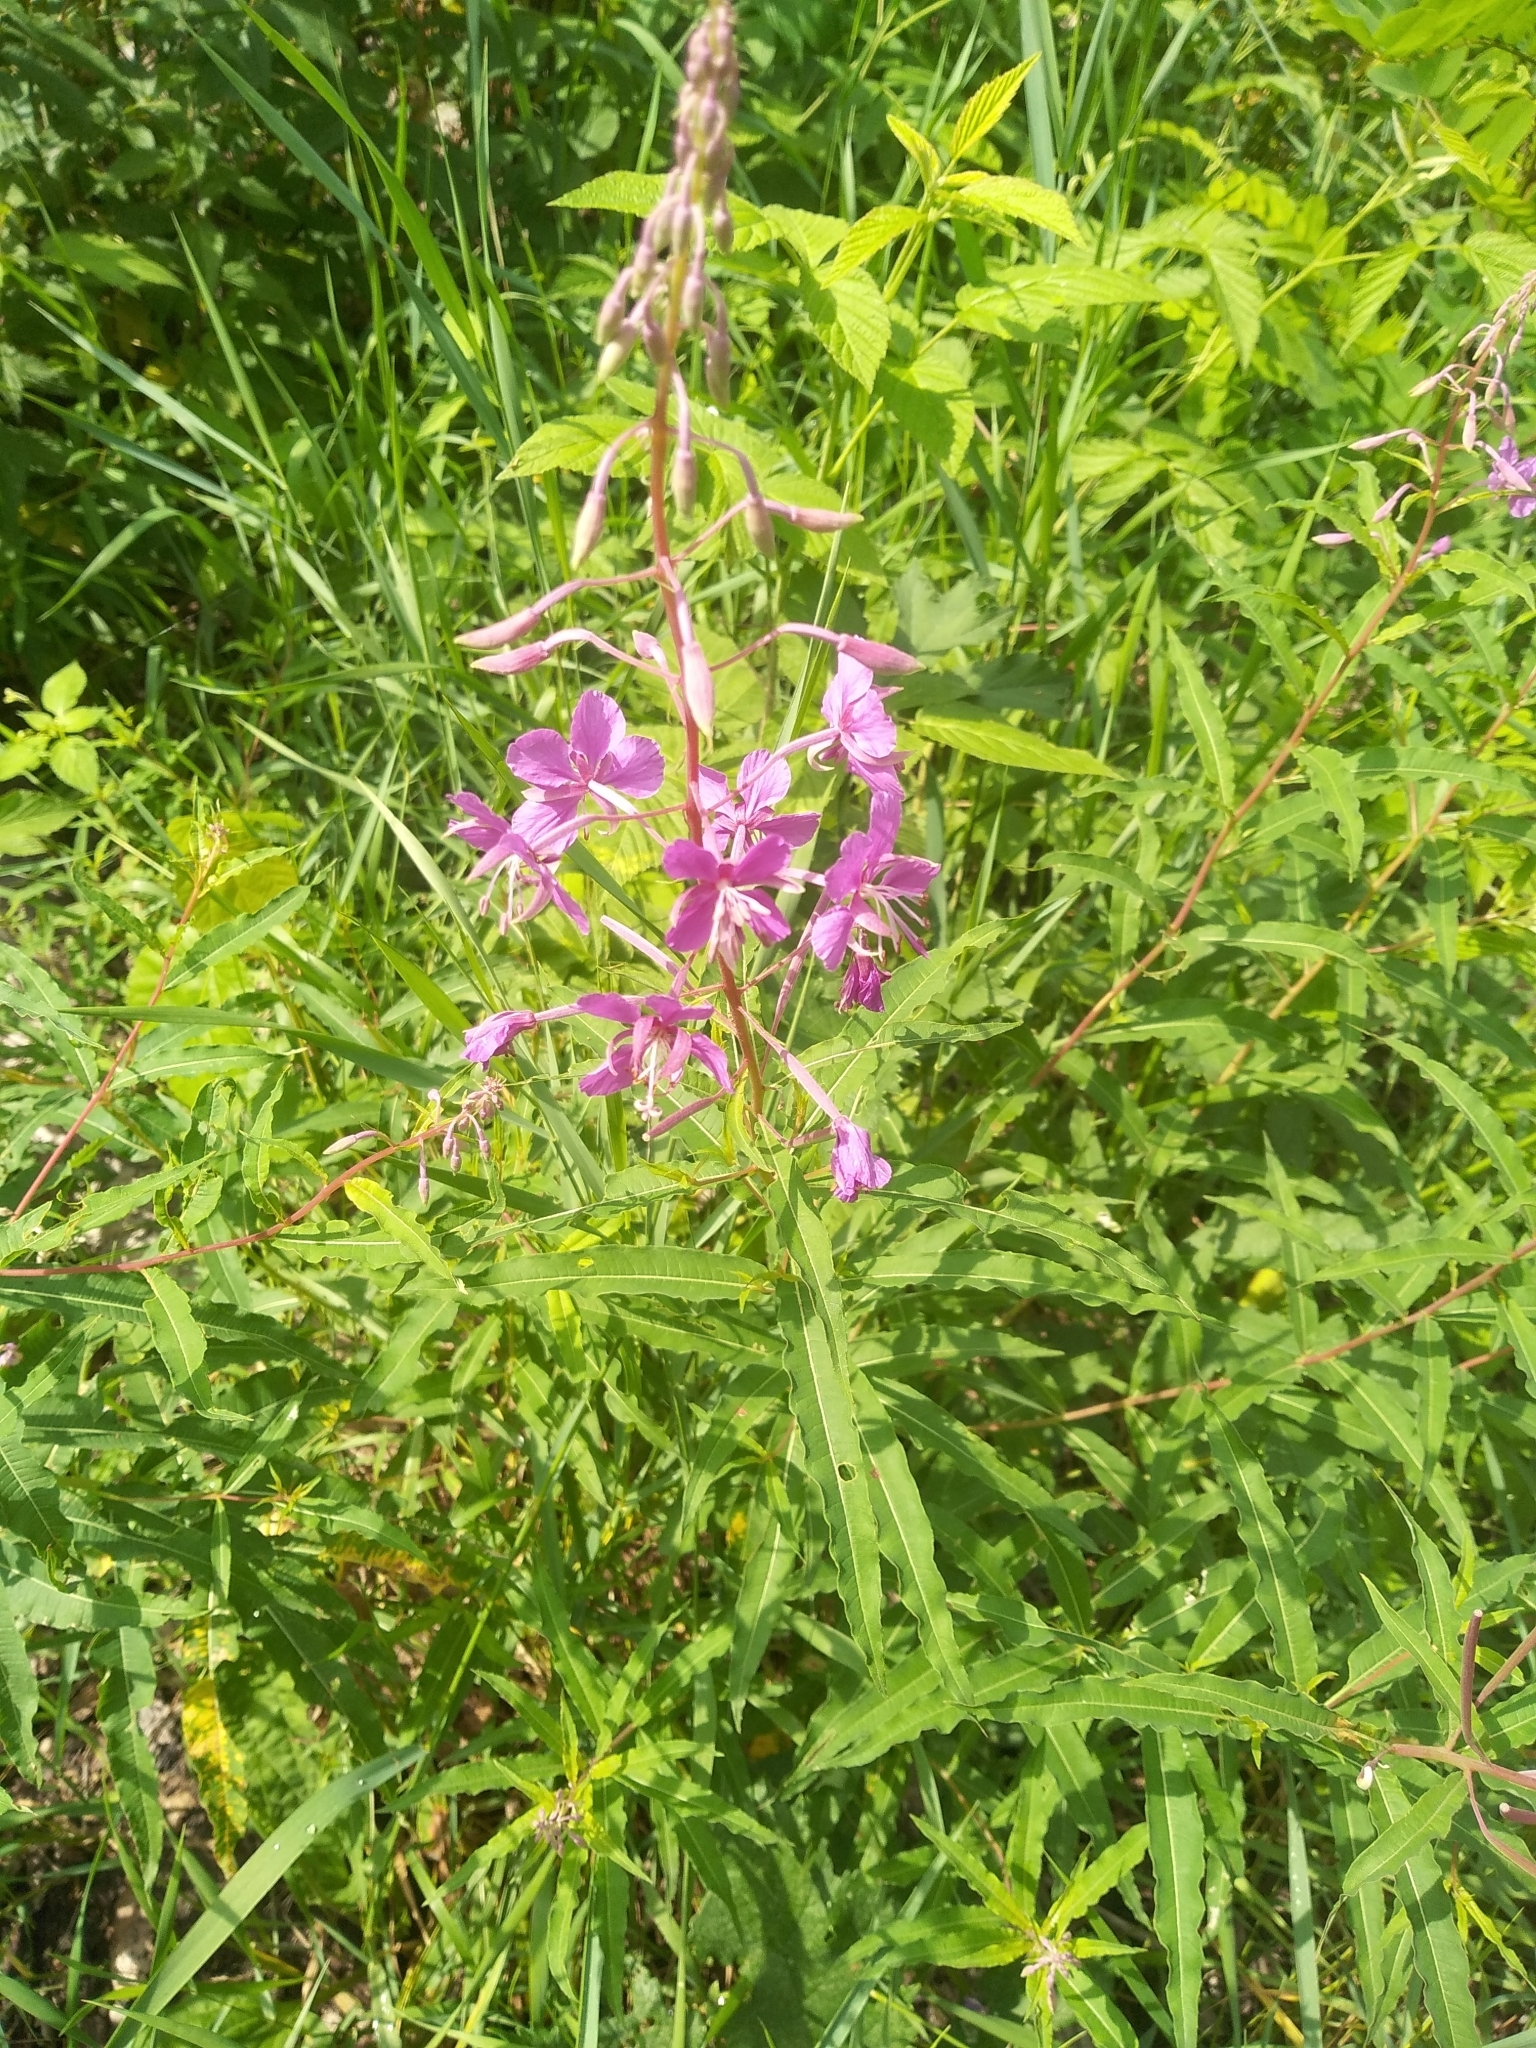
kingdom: Plantae
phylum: Tracheophyta
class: Magnoliopsida
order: Myrtales
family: Onagraceae
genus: Chamaenerion
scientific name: Chamaenerion angustifolium
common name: Fireweed
